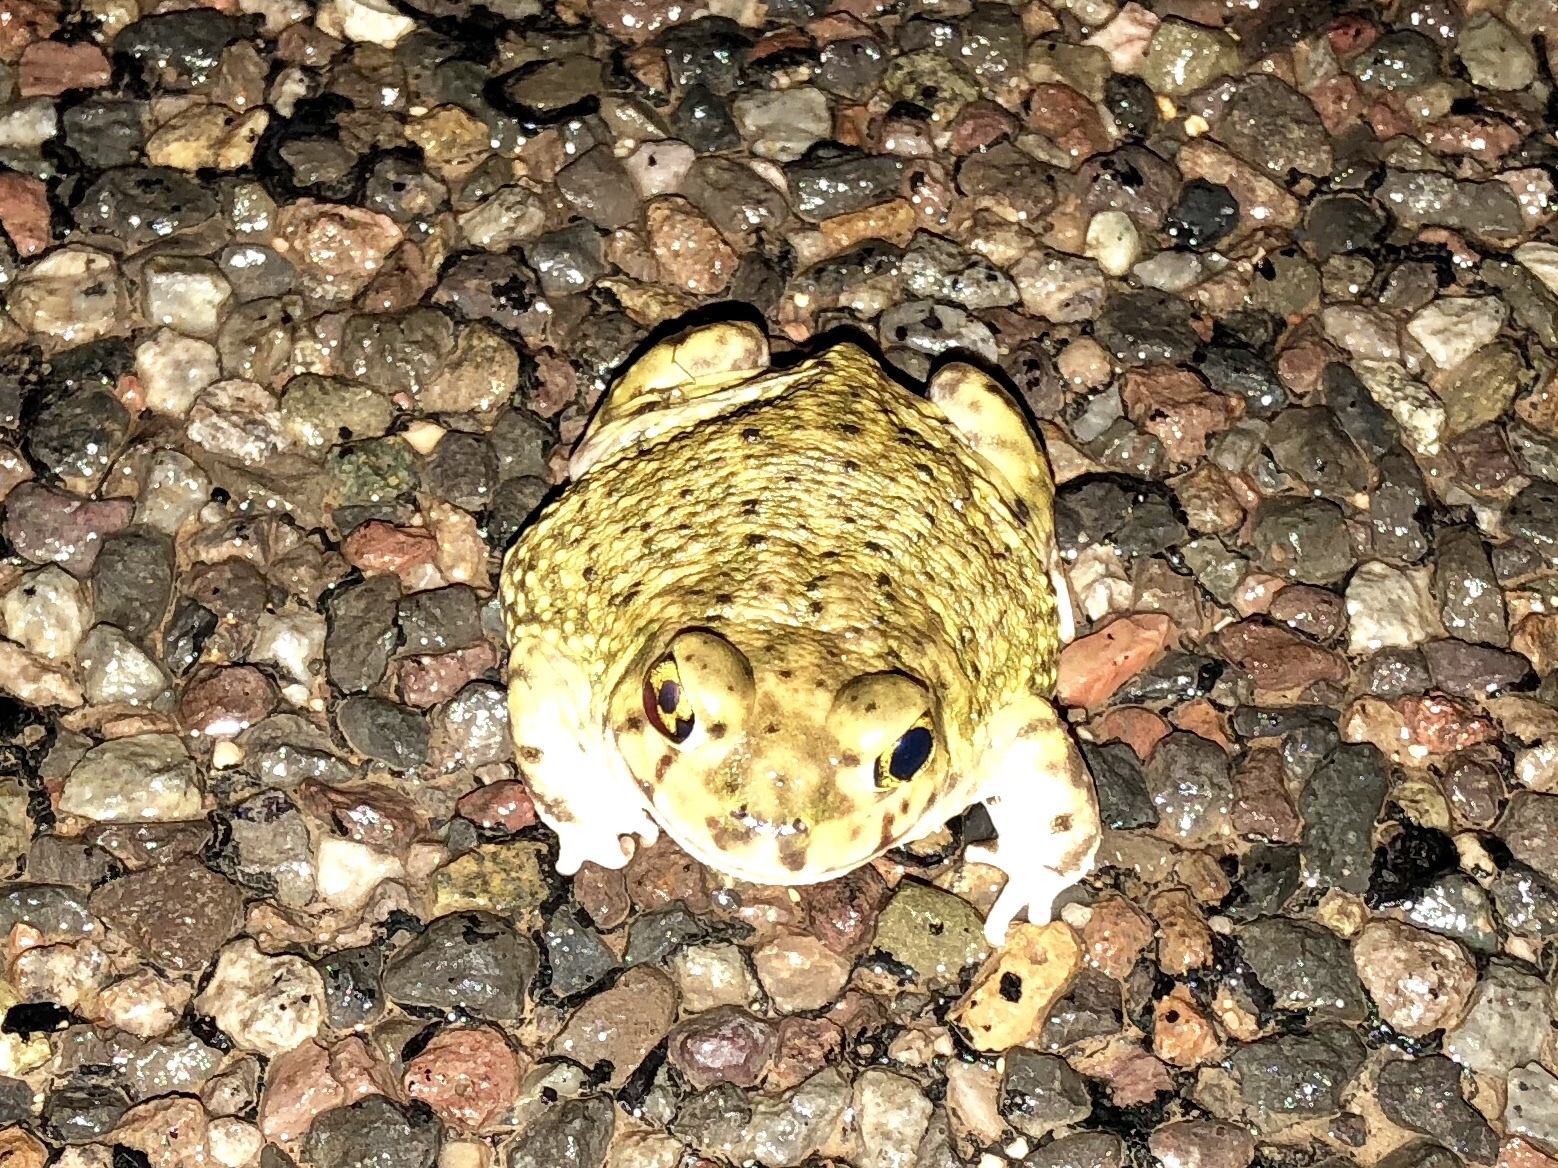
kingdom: Animalia
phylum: Chordata
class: Amphibia
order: Anura
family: Scaphiopodidae
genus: Scaphiopus
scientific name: Scaphiopus couchii
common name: Couch's spadefoot toad
